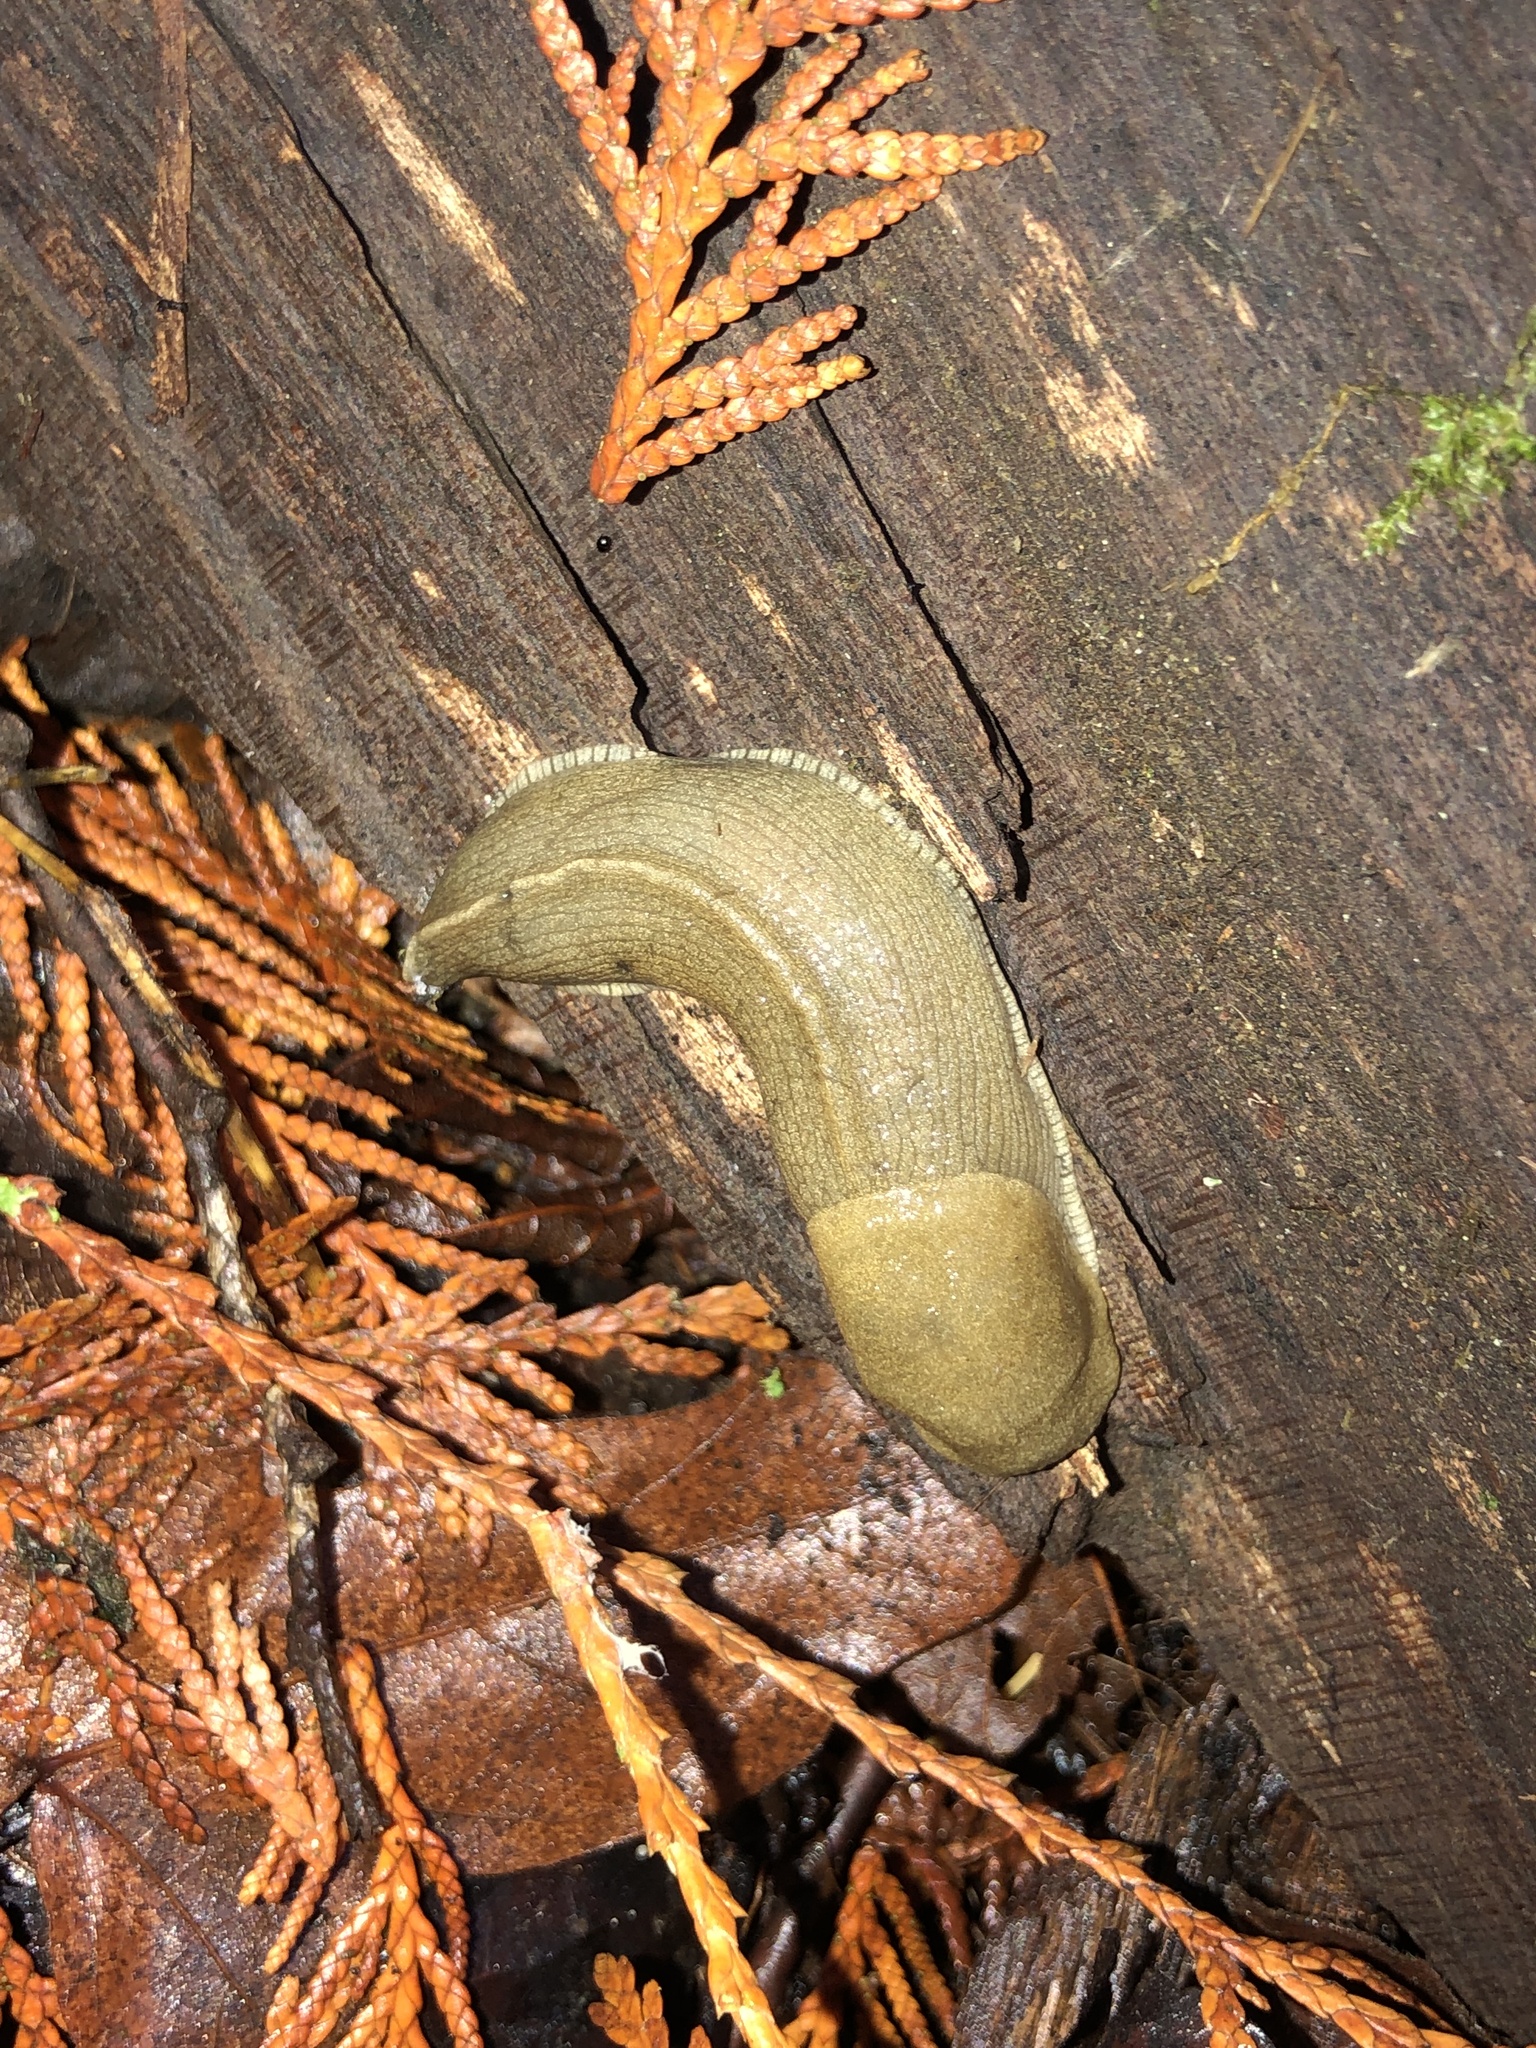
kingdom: Animalia
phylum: Mollusca
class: Gastropoda
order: Stylommatophora
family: Ariolimacidae
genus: Ariolimax
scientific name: Ariolimax columbianus
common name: Pacific banana slug
